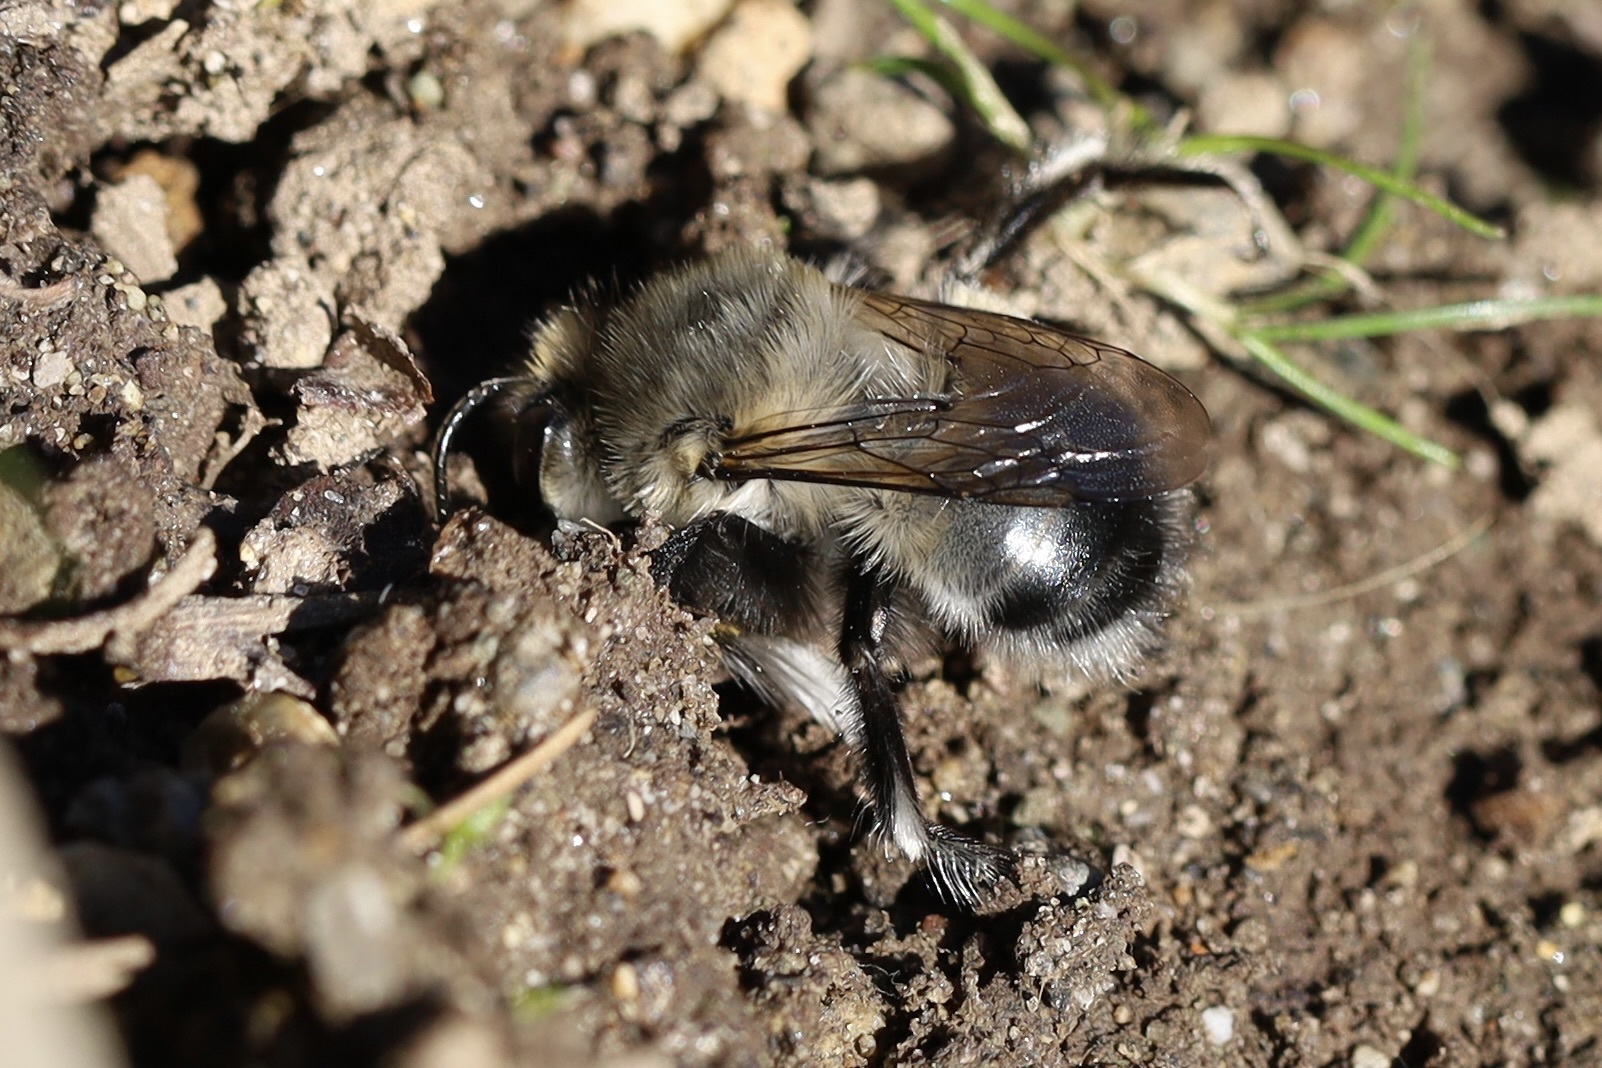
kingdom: Animalia
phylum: Arthropoda
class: Insecta
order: Hymenoptera
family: Apidae
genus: Anthophora
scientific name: Anthophora pacifica
